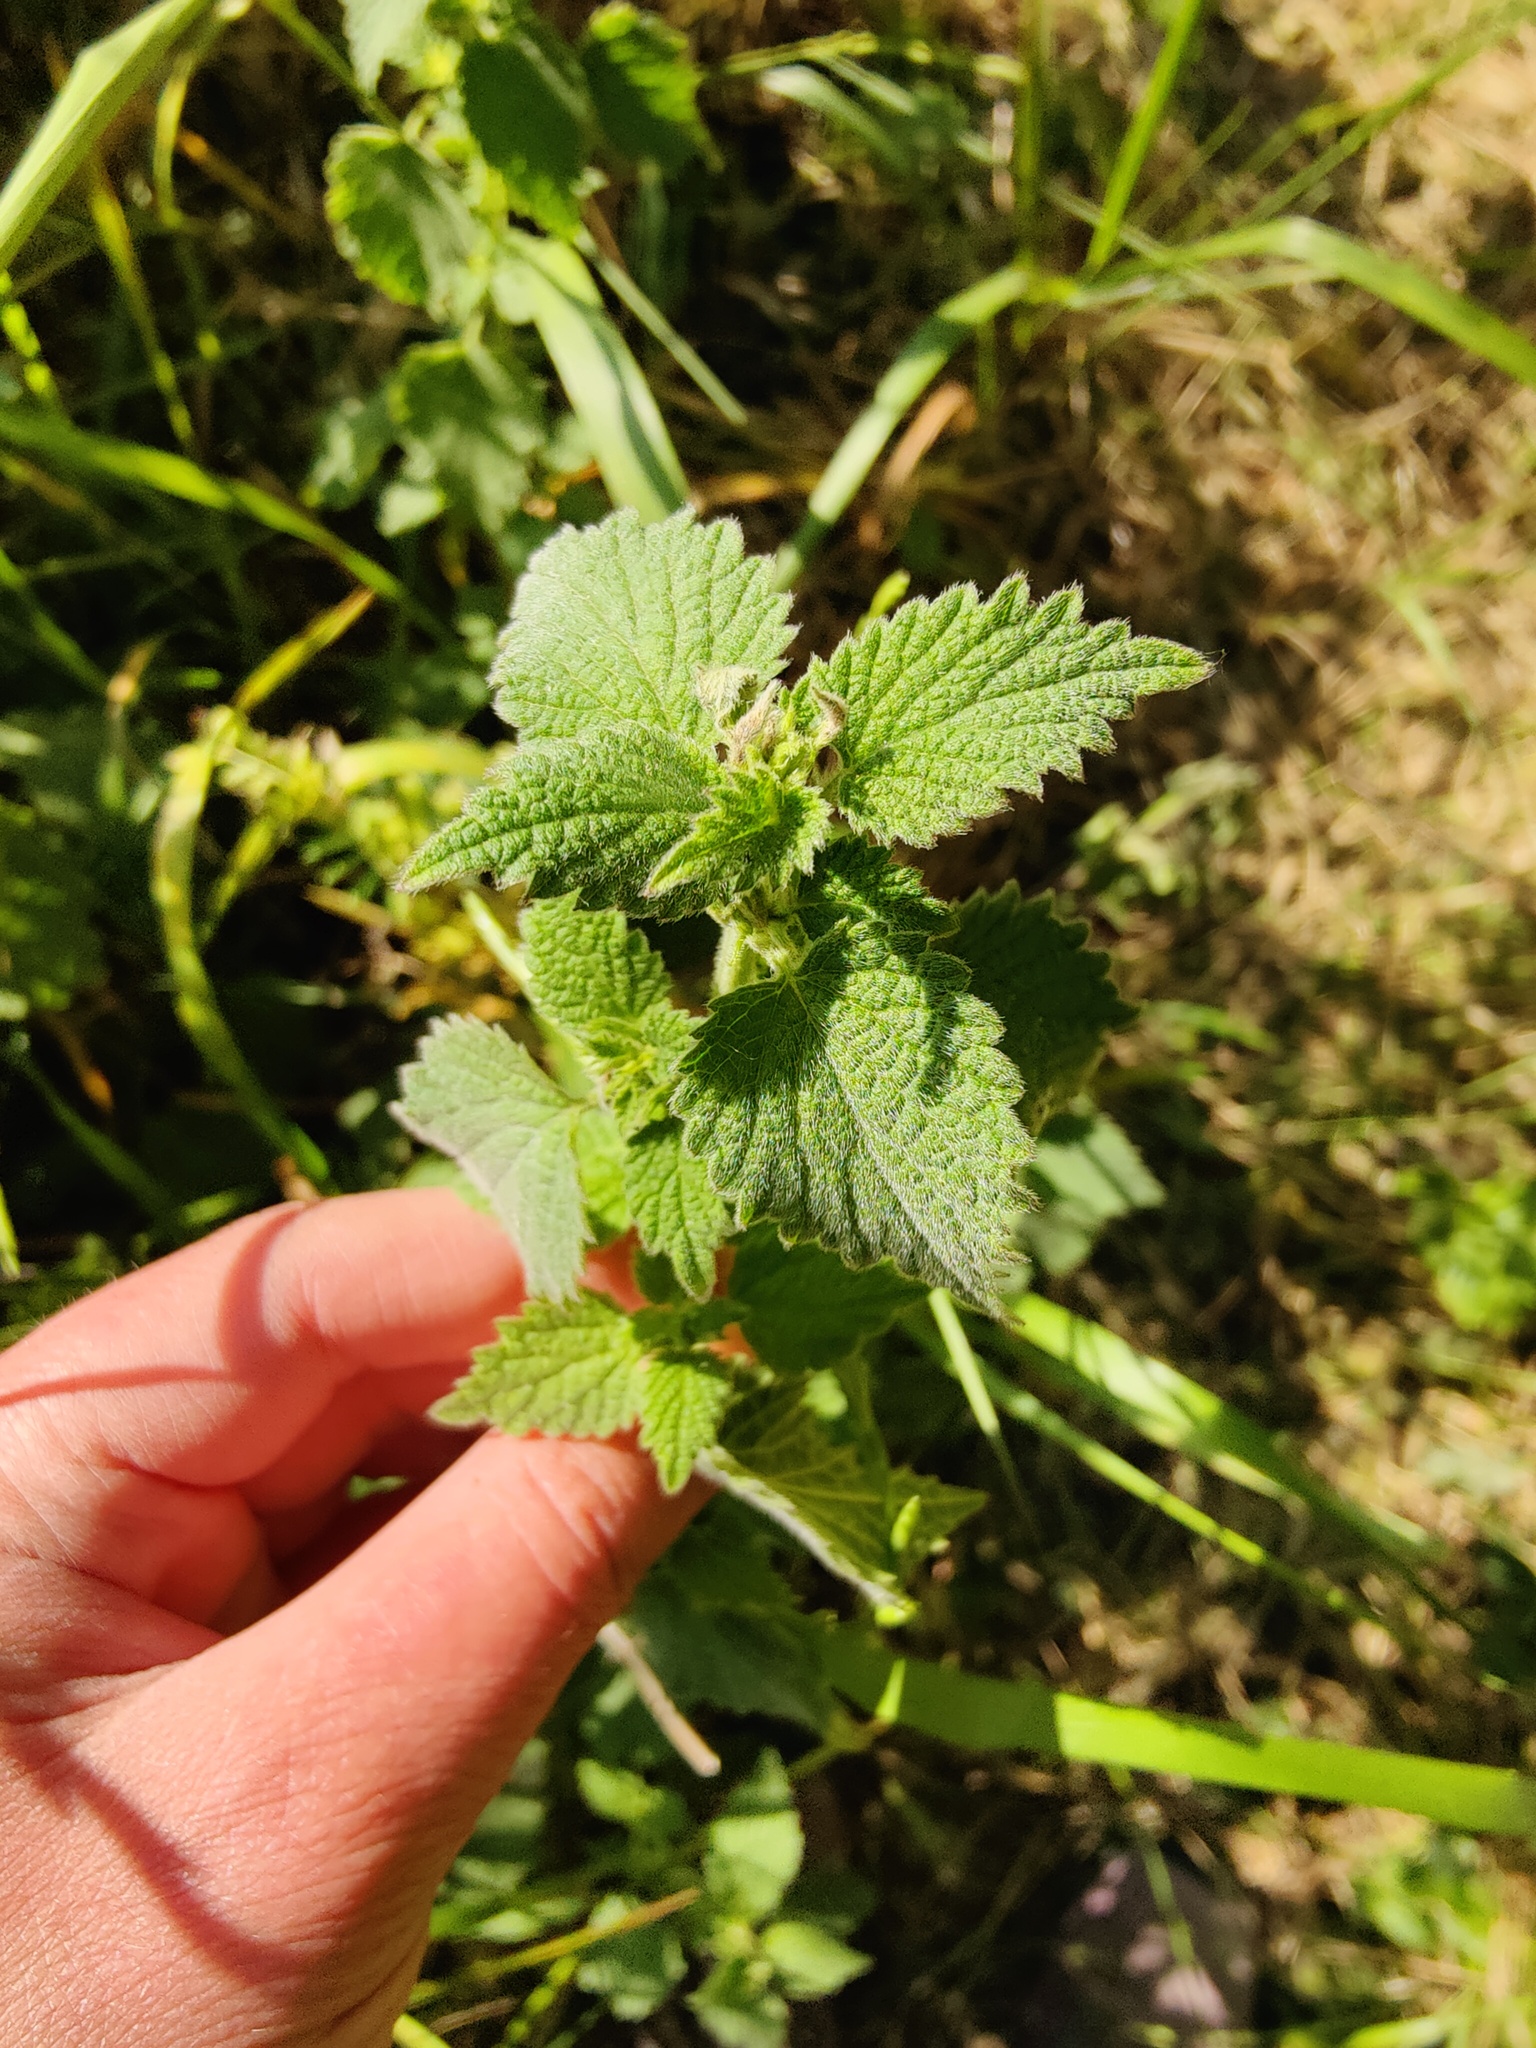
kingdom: Plantae
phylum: Tracheophyta
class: Magnoliopsida
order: Lamiales
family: Lamiaceae
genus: Ballota
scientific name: Ballota nigra
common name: Black horehound
